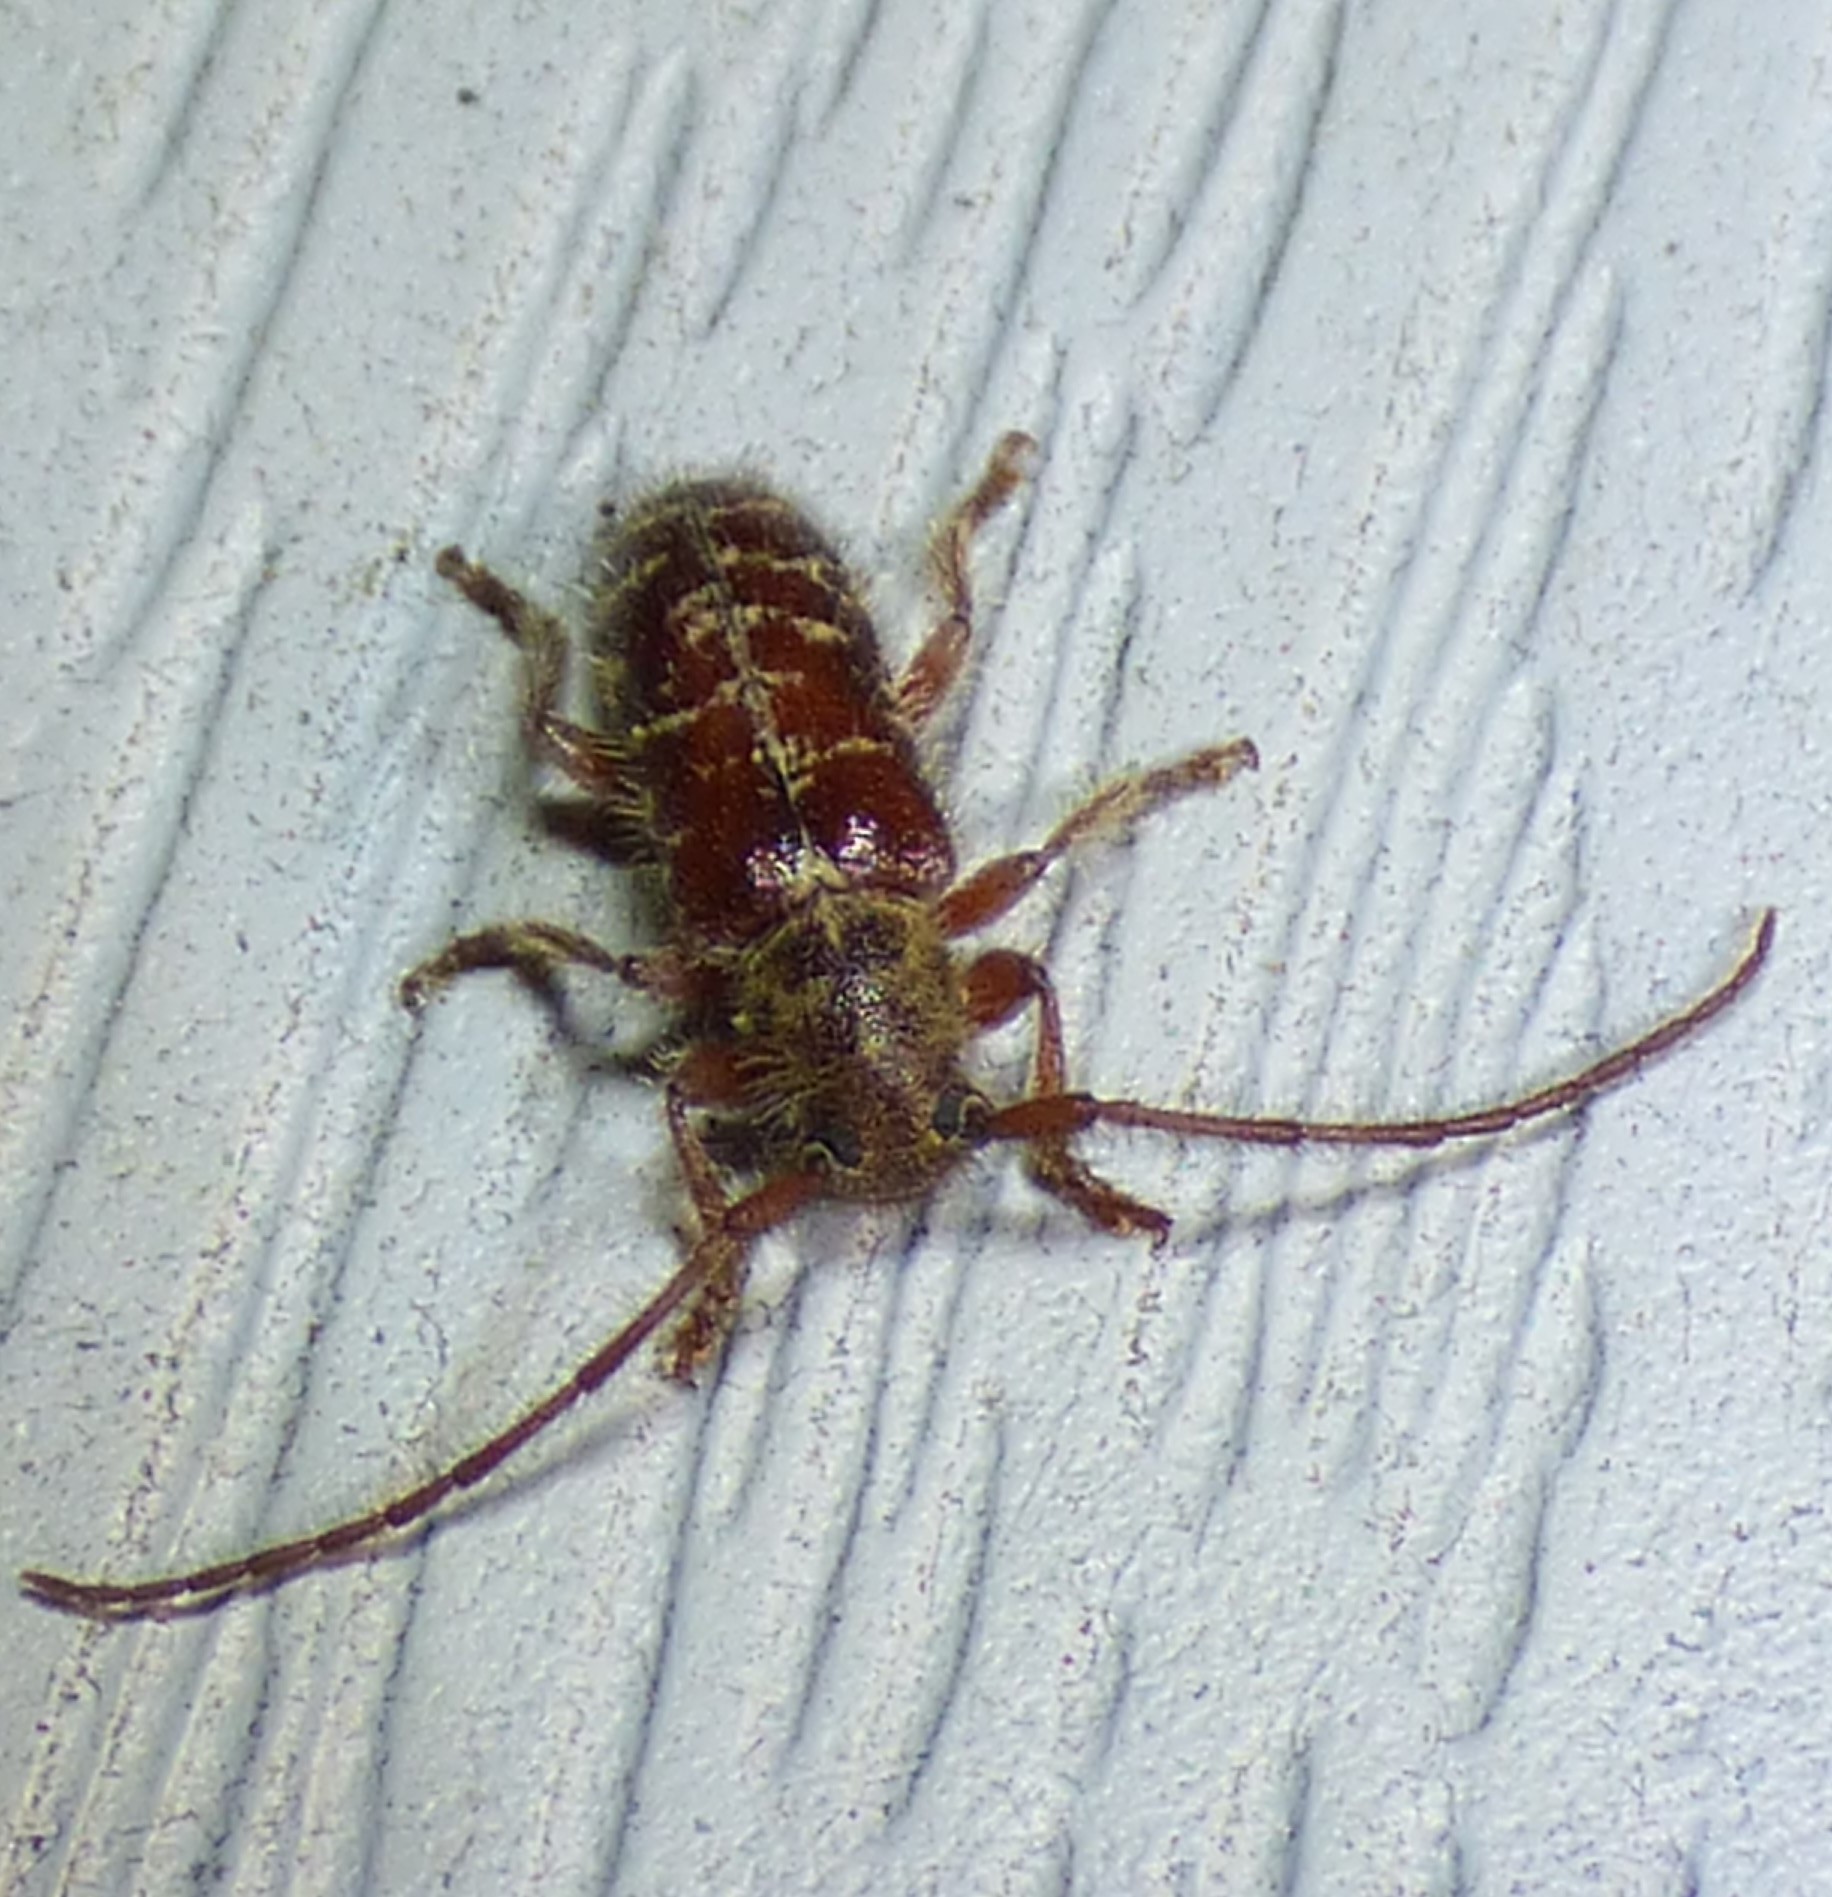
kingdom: Animalia
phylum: Arthropoda
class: Insecta
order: Coleoptera
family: Cerambycidae
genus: Eupogonius
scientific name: Eupogonius tomentosus
